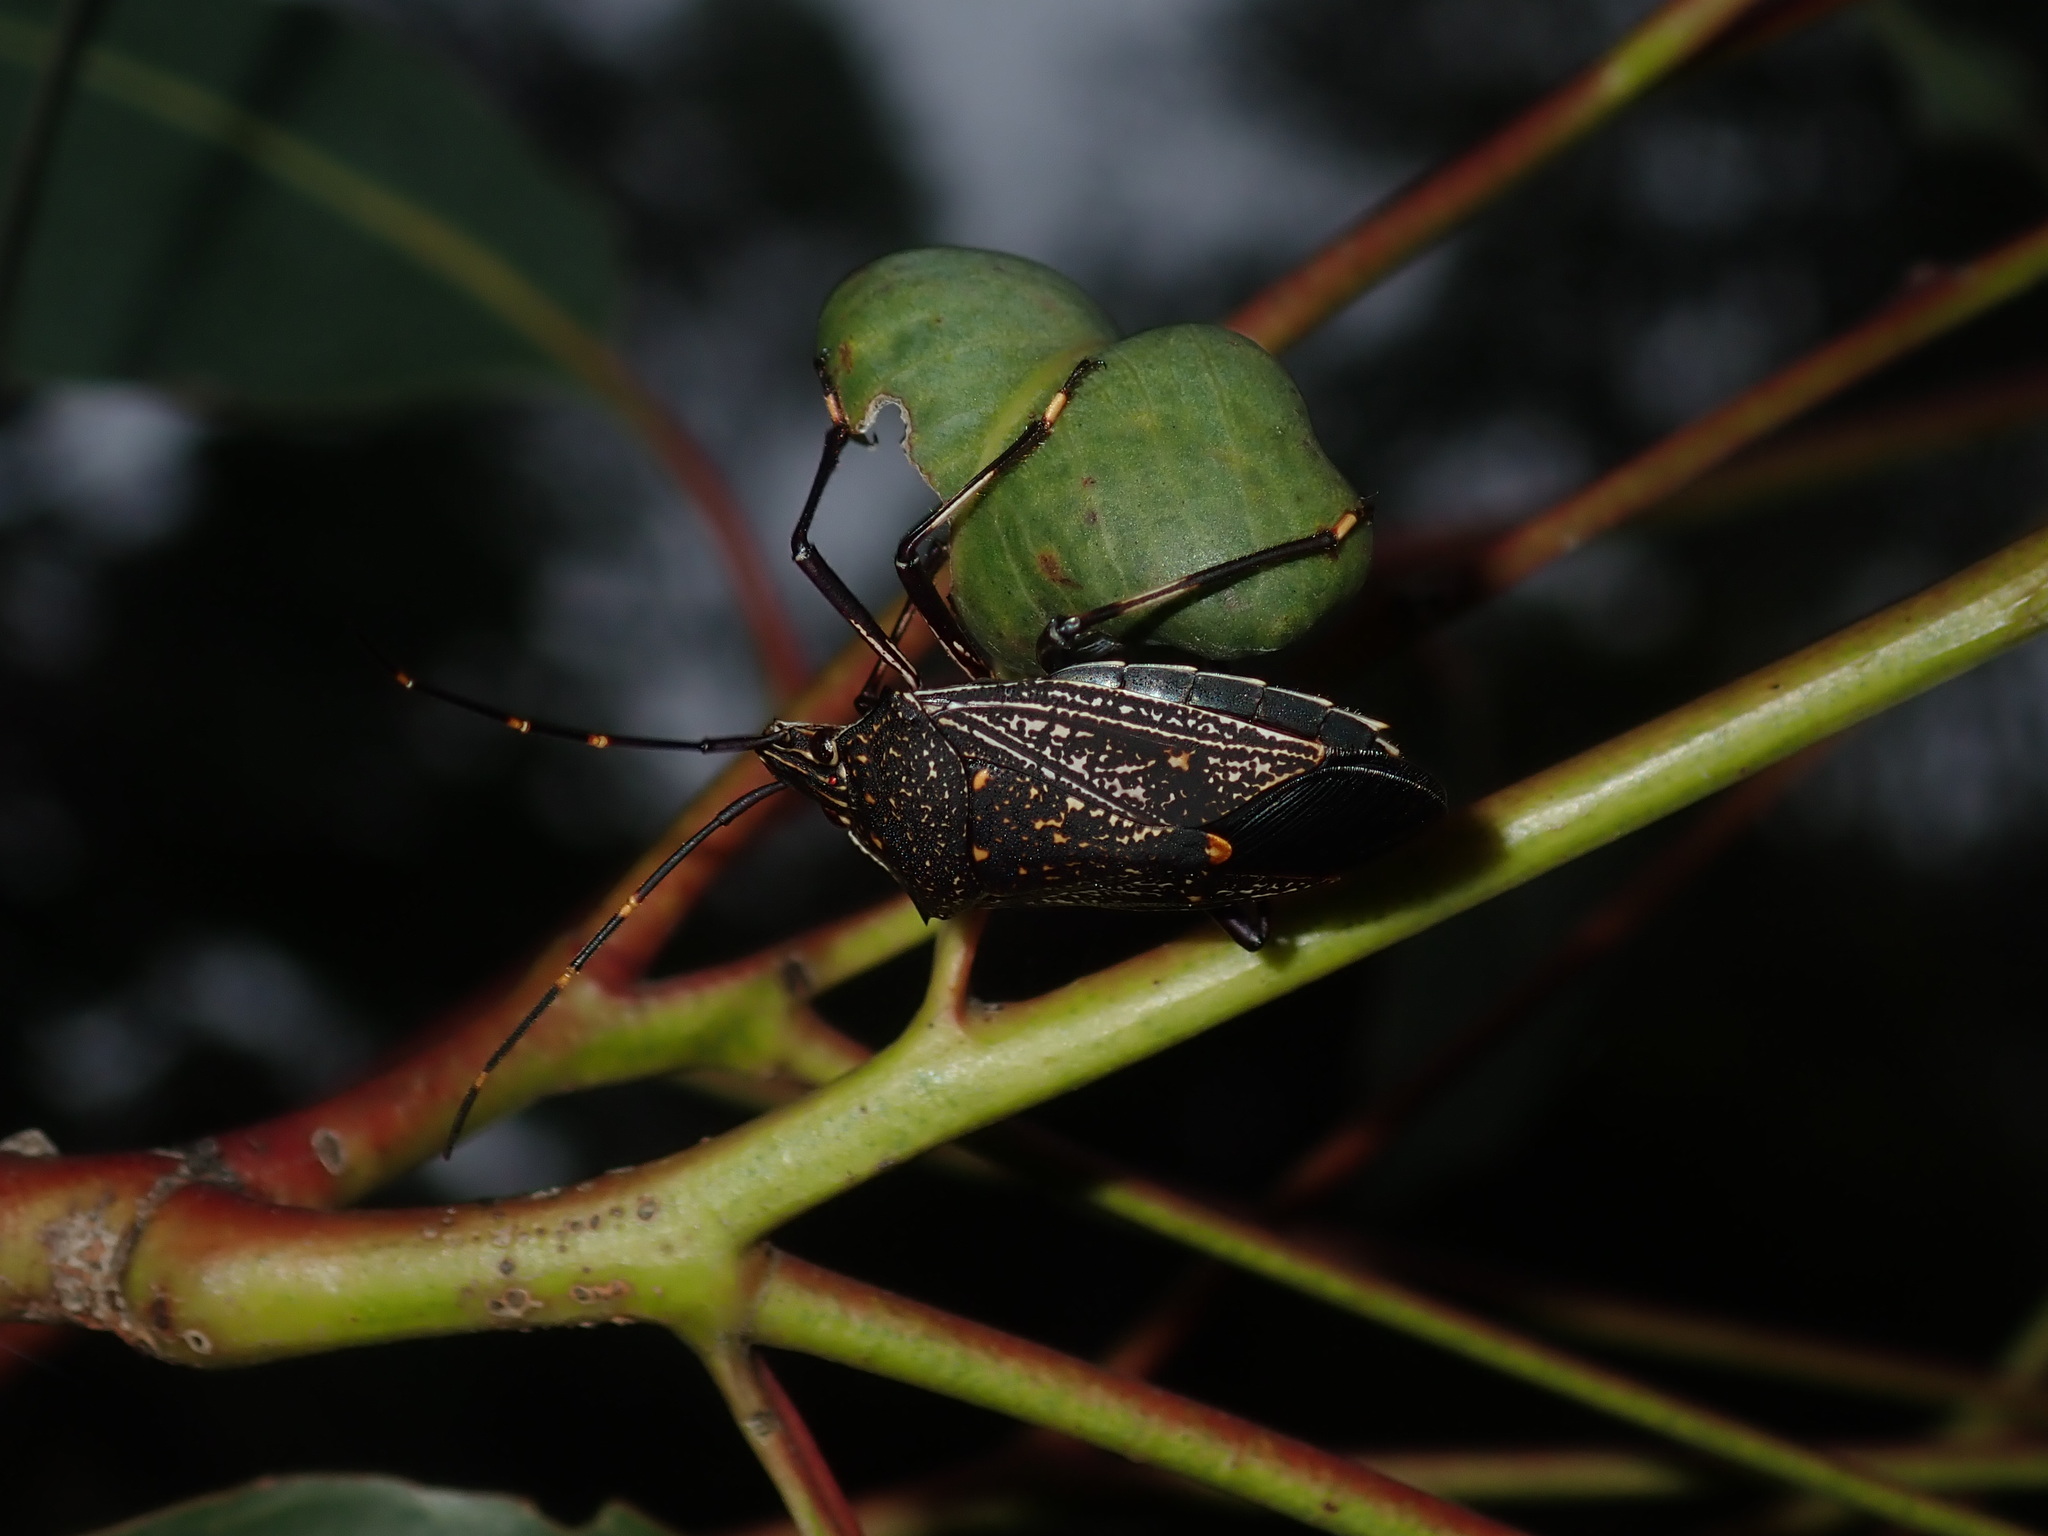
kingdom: Animalia
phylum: Arthropoda
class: Insecta
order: Hemiptera
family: Pentatomidae
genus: Poecilometis
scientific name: Poecilometis
